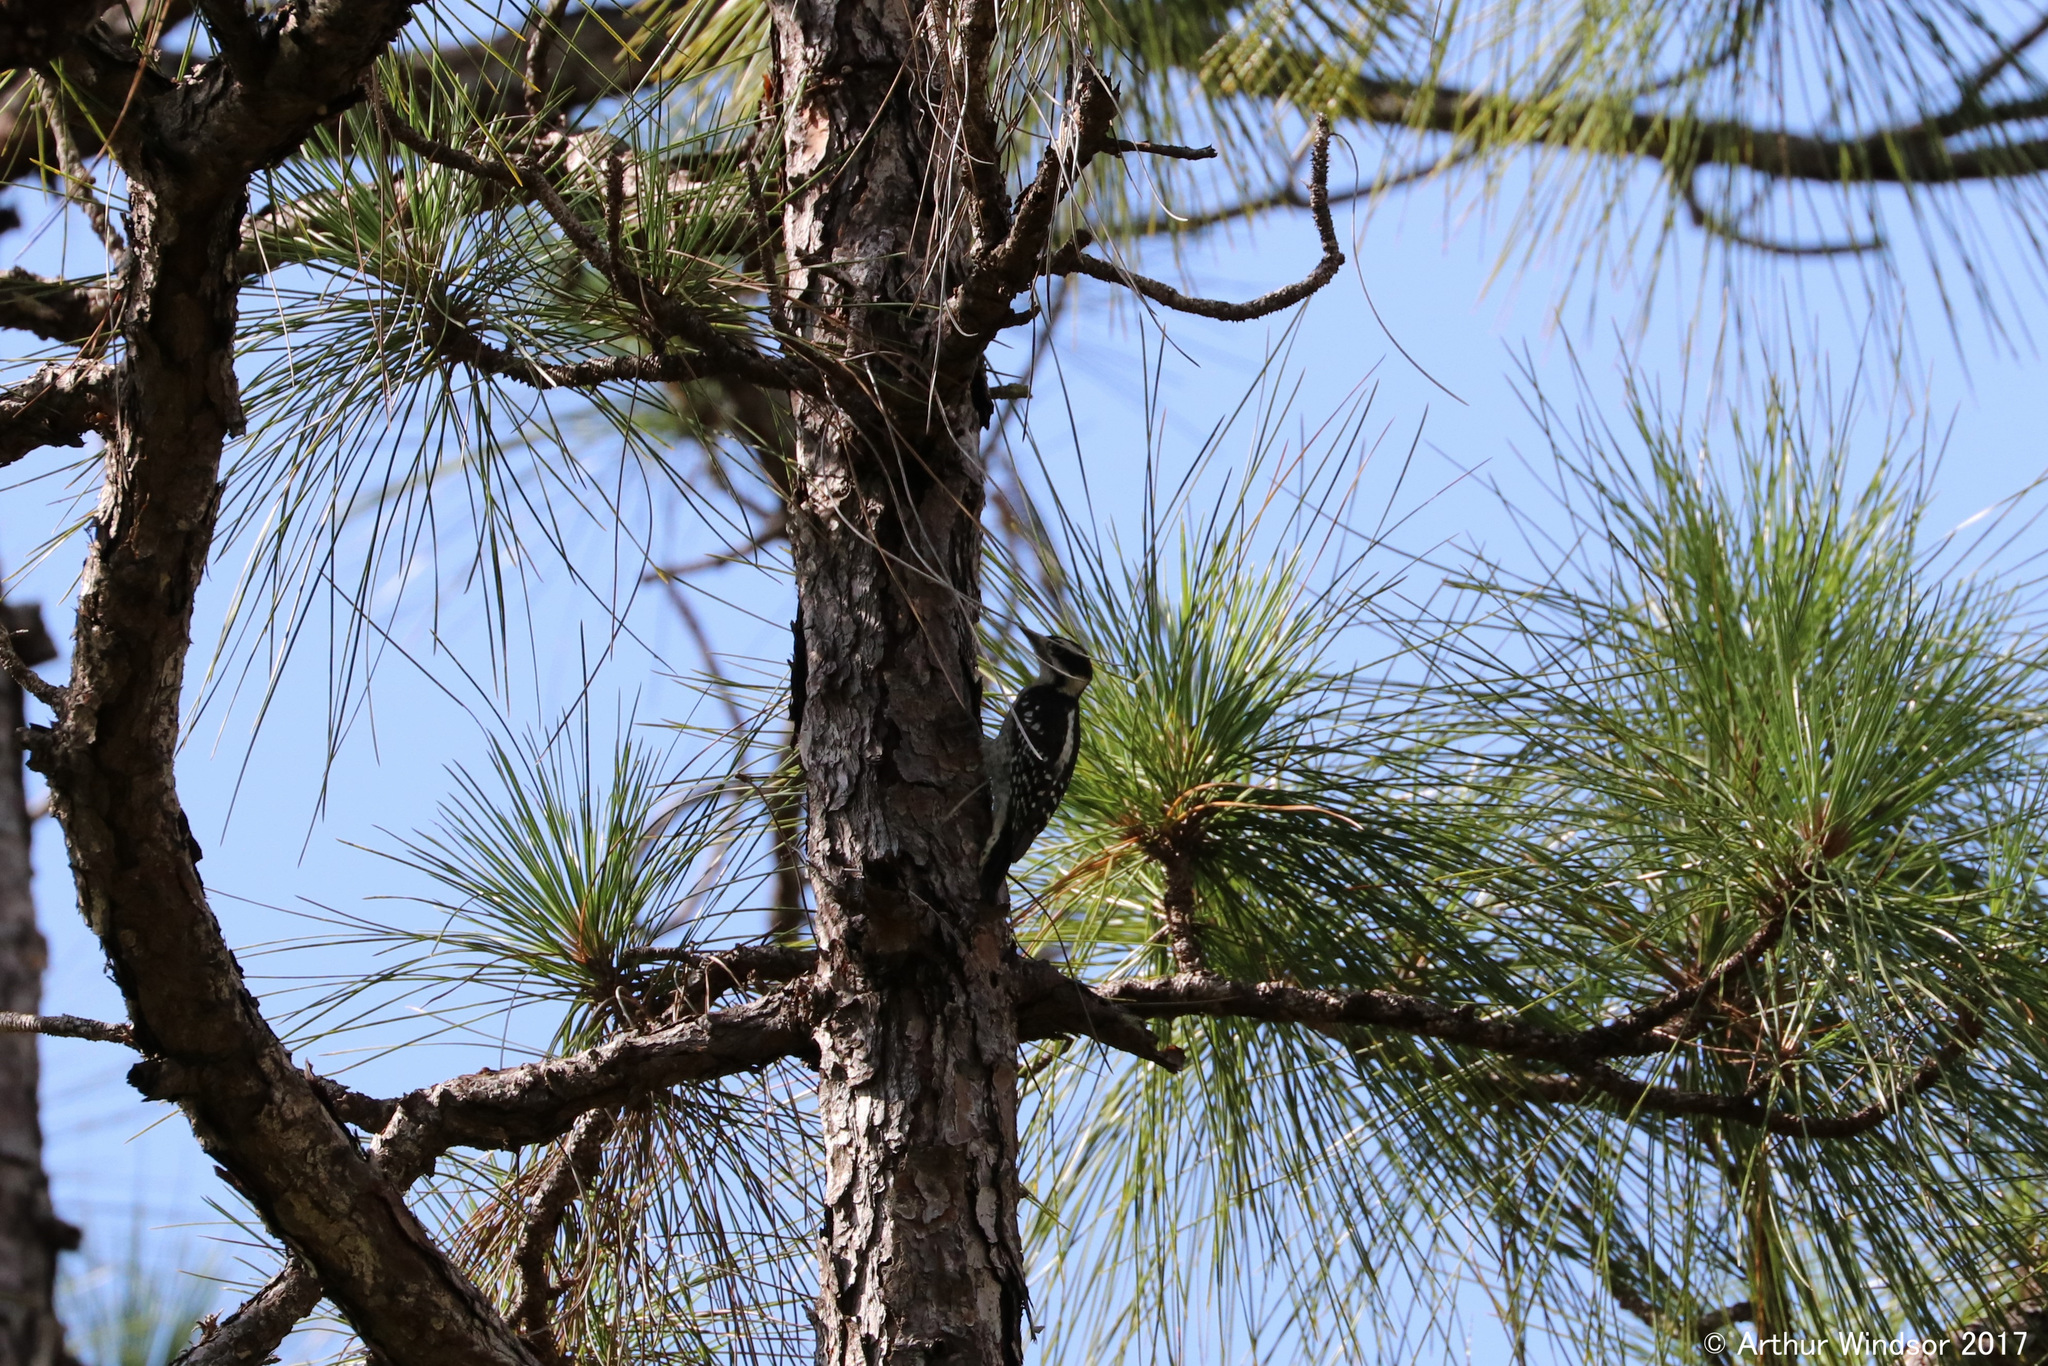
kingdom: Animalia
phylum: Chordata
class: Aves
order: Piciformes
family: Picidae
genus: Dryobates
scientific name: Dryobates pubescens
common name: Downy woodpecker
